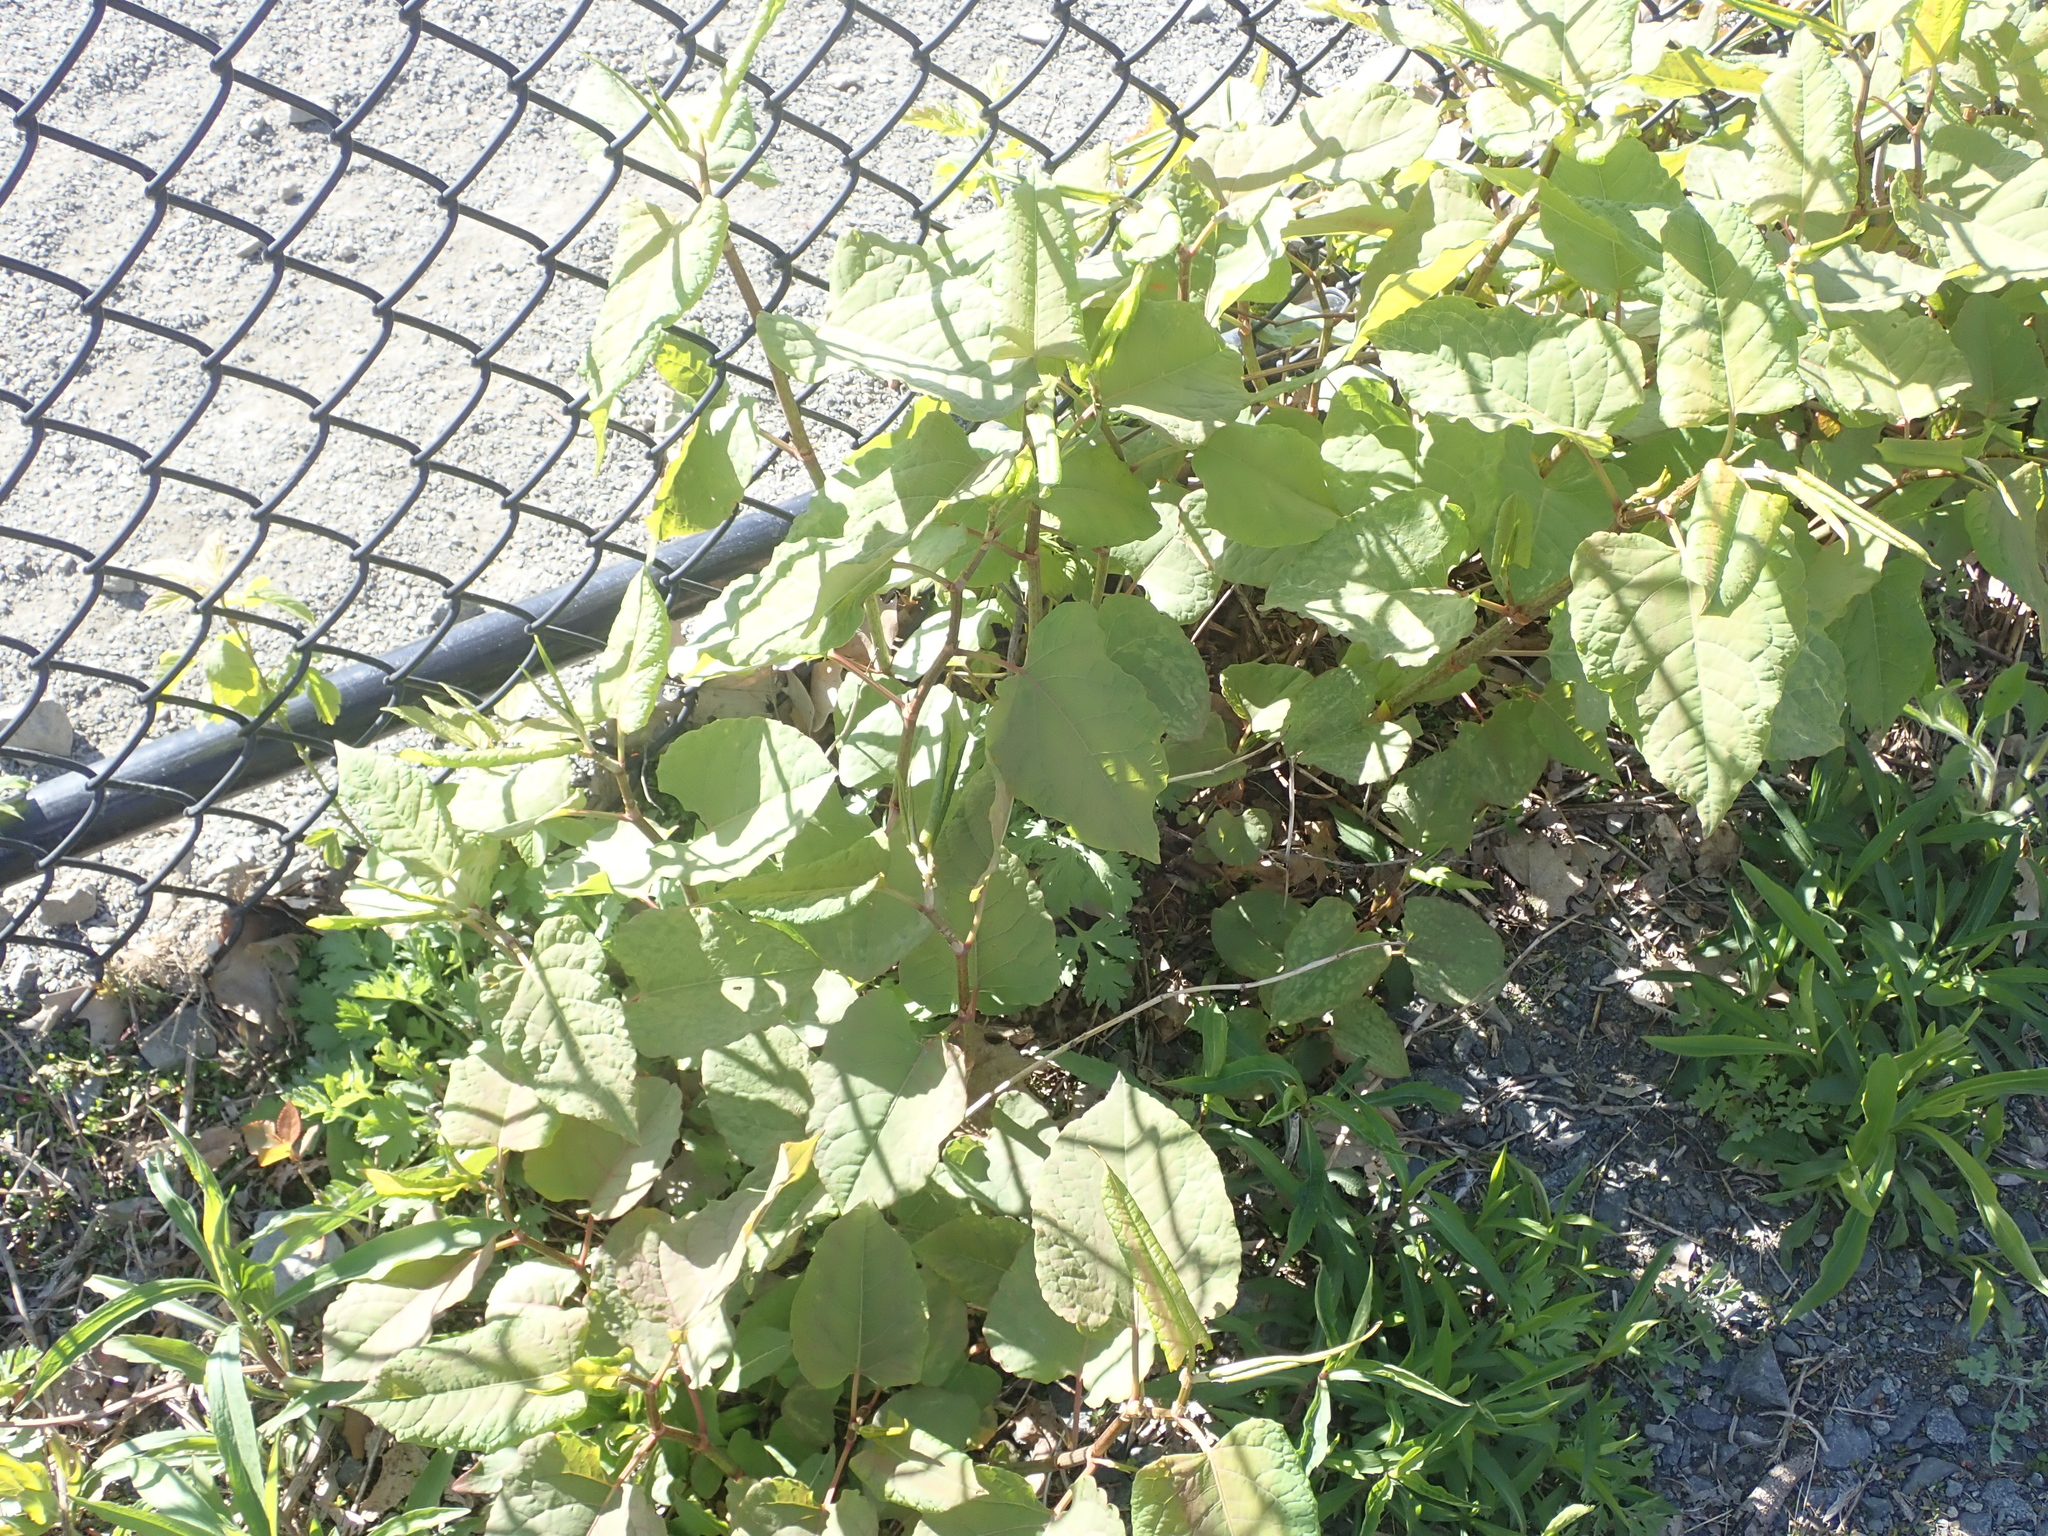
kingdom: Plantae
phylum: Tracheophyta
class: Magnoliopsida
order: Caryophyllales
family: Polygonaceae
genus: Reynoutria
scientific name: Reynoutria bohemica
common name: Bohemian knotweed
